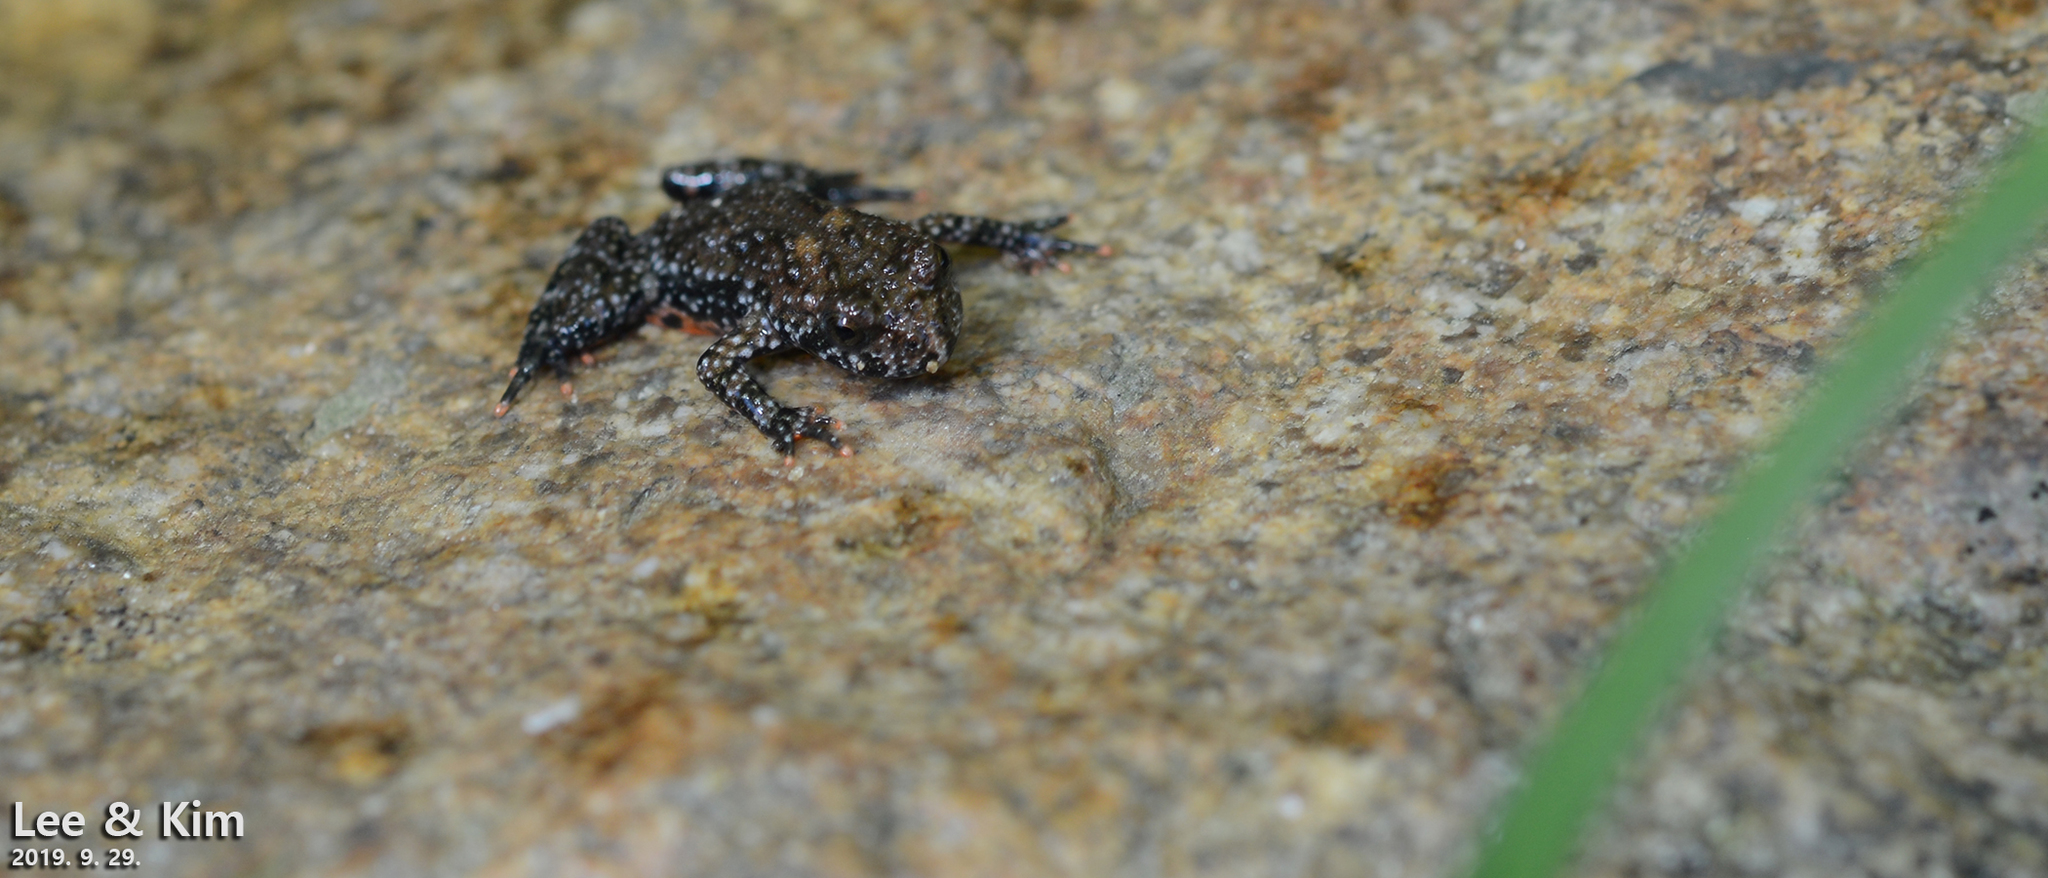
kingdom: Animalia
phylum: Chordata
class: Amphibia
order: Anura
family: Bombinatoridae
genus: Bombina
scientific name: Bombina orientalis
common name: Oriental firebelly toad
